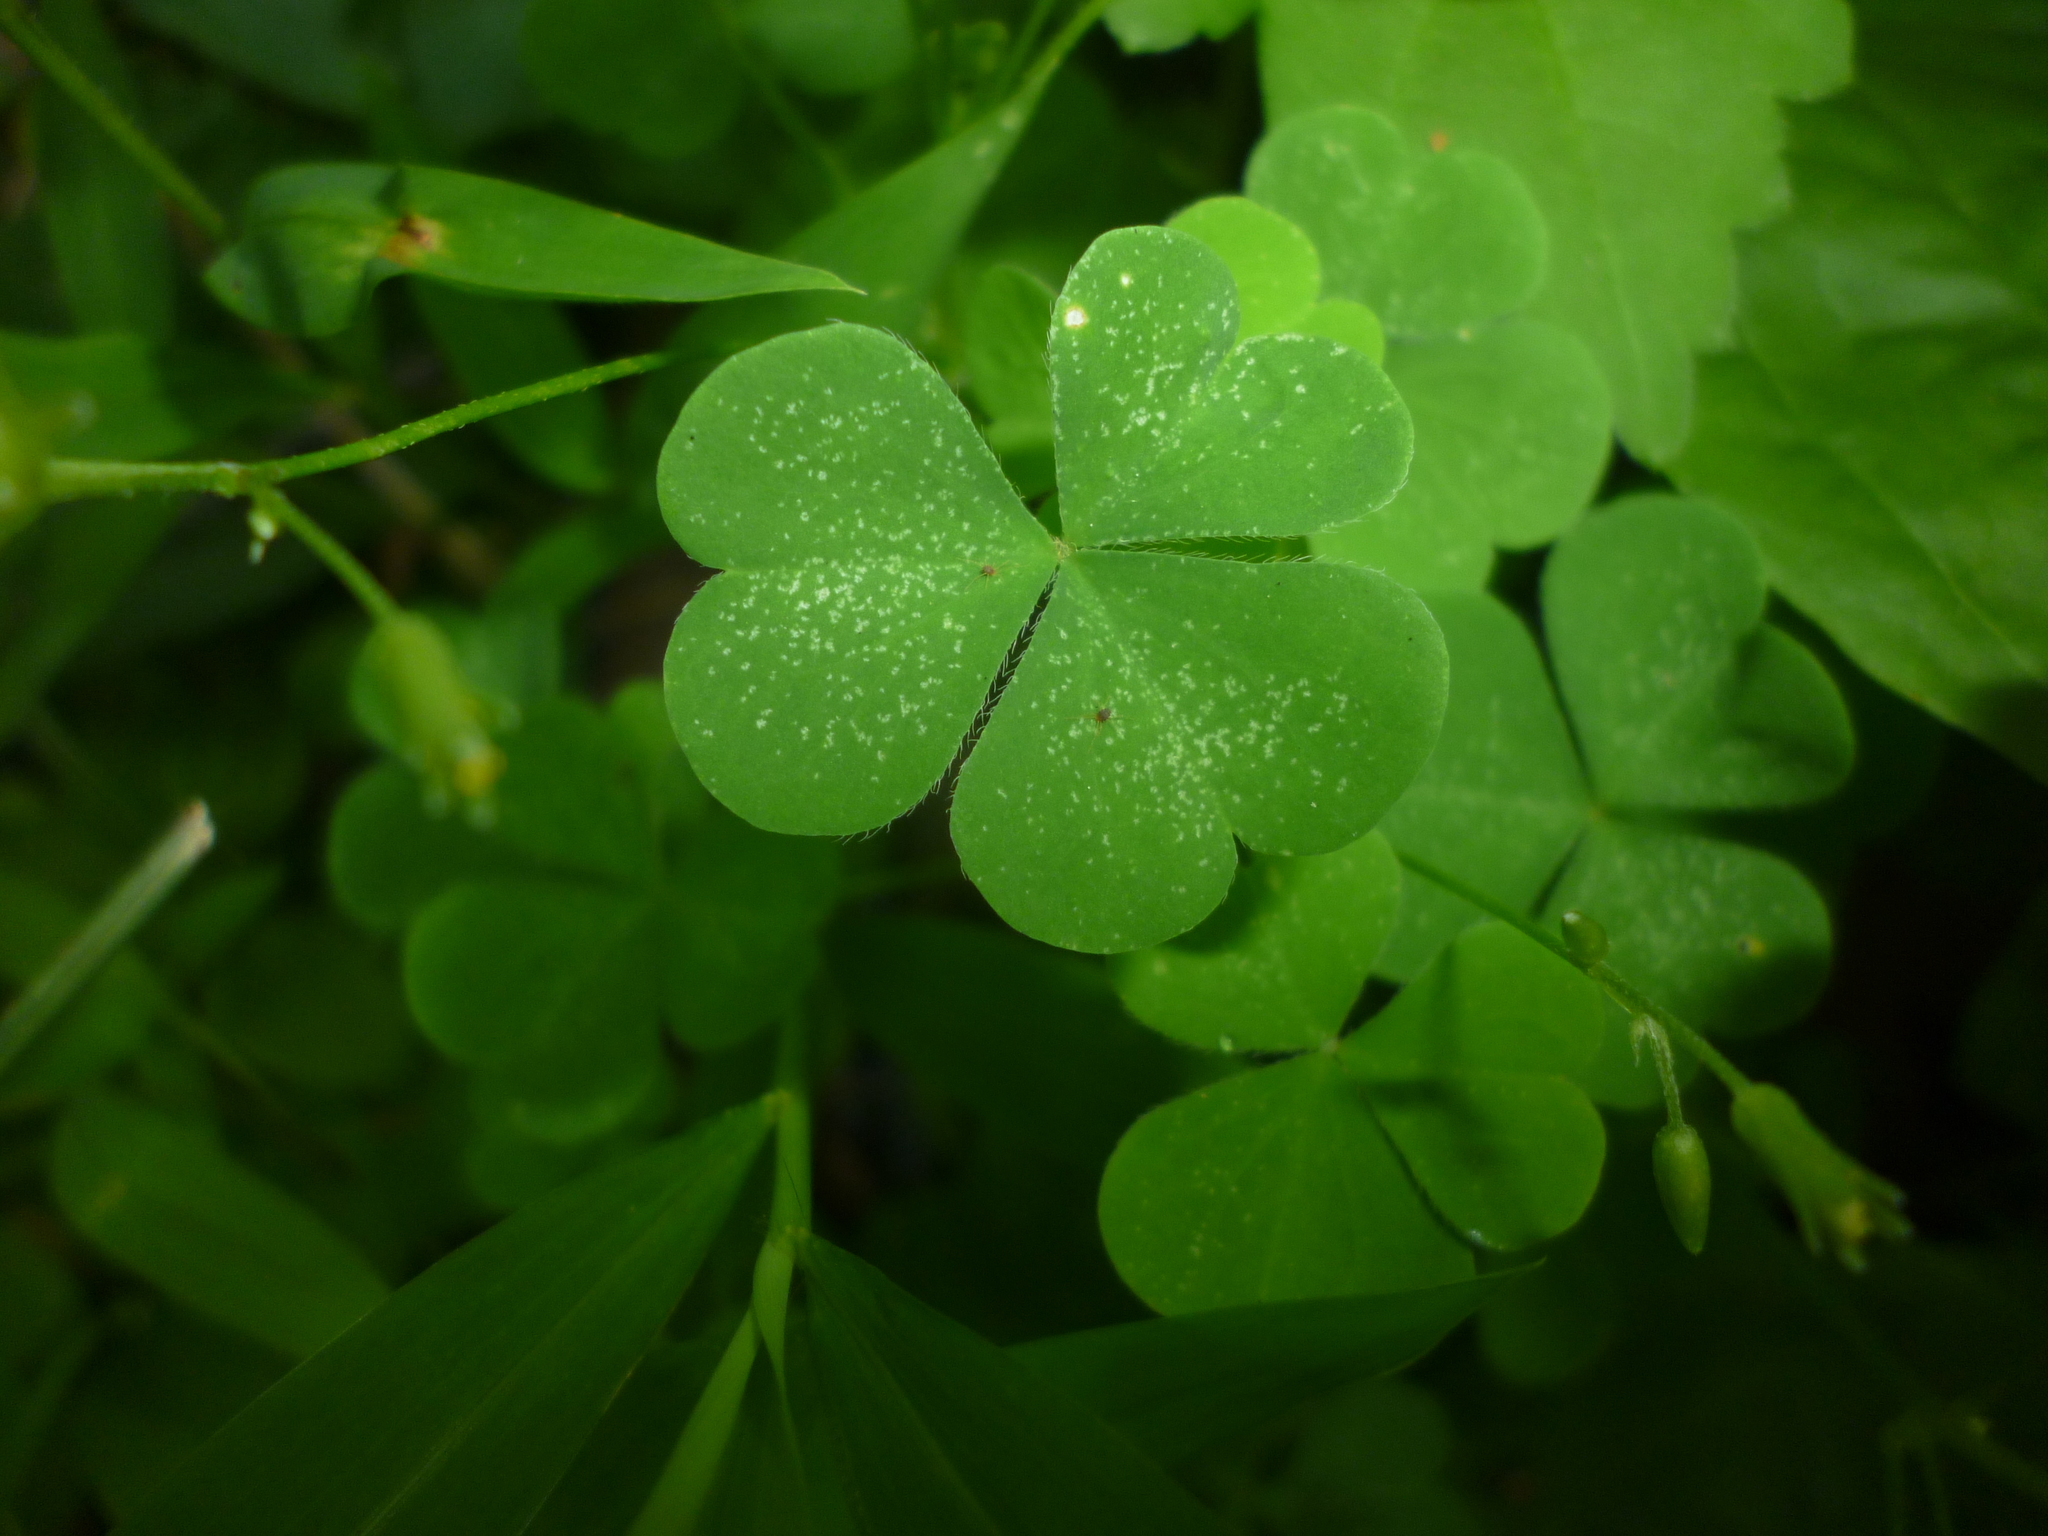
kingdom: Plantae
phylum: Tracheophyta
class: Magnoliopsida
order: Oxalidales
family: Oxalidaceae
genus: Oxalis
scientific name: Oxalis corniculata
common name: Procumbent yellow-sorrel
